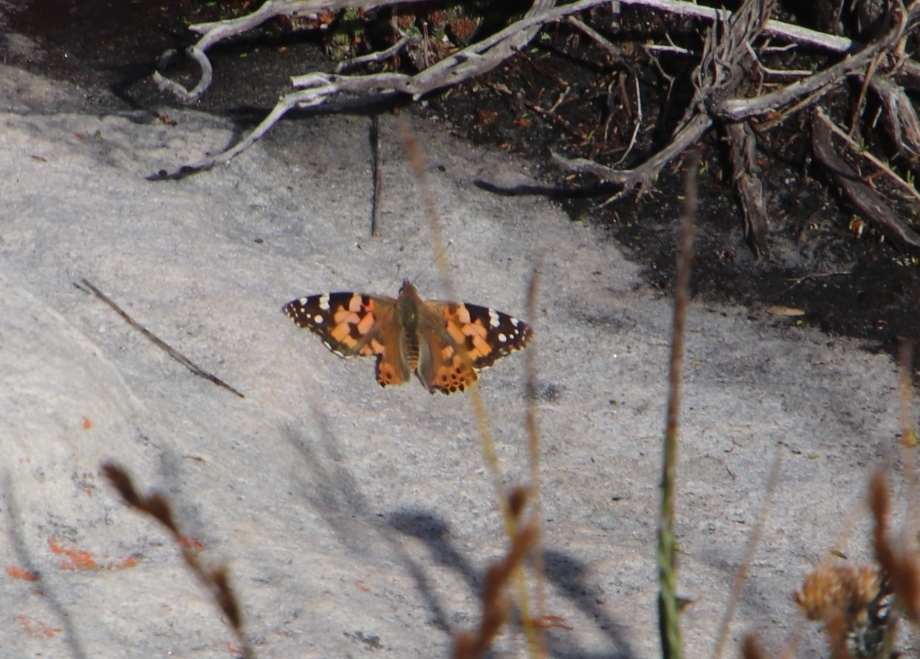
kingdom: Animalia
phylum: Arthropoda
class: Insecta
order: Lepidoptera
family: Nymphalidae
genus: Vanessa
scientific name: Vanessa cardui
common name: Painted lady
